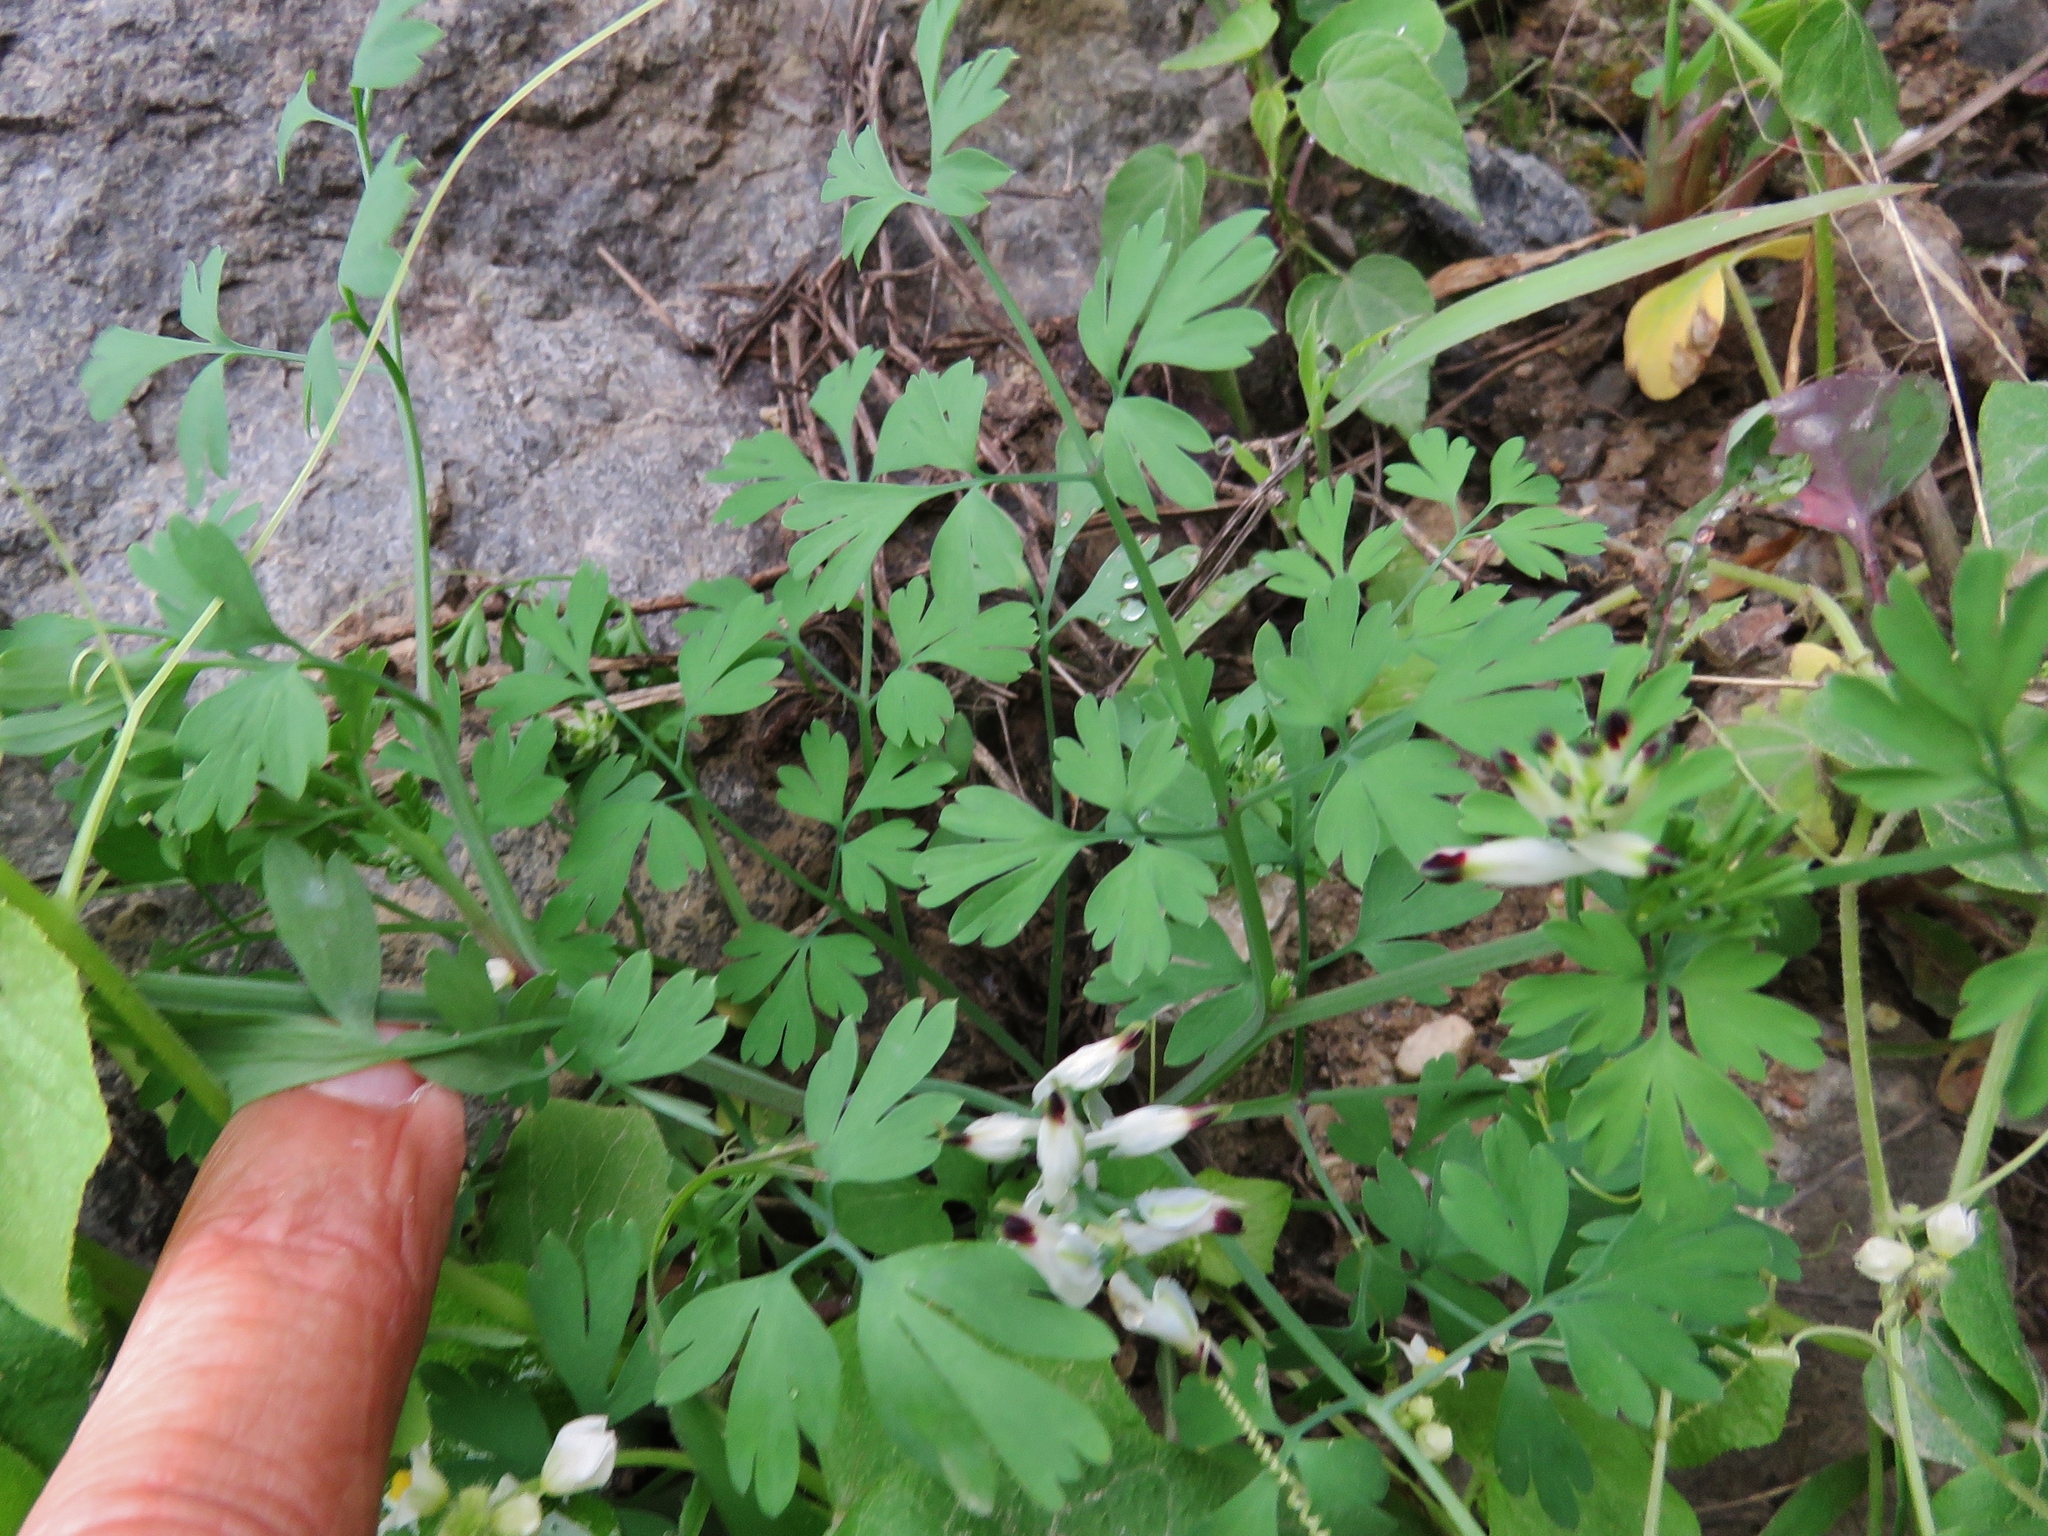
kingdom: Plantae
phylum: Tracheophyta
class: Magnoliopsida
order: Ranunculales
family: Papaveraceae
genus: Fumaria
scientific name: Fumaria capreolata
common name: White ramping-fumitory
